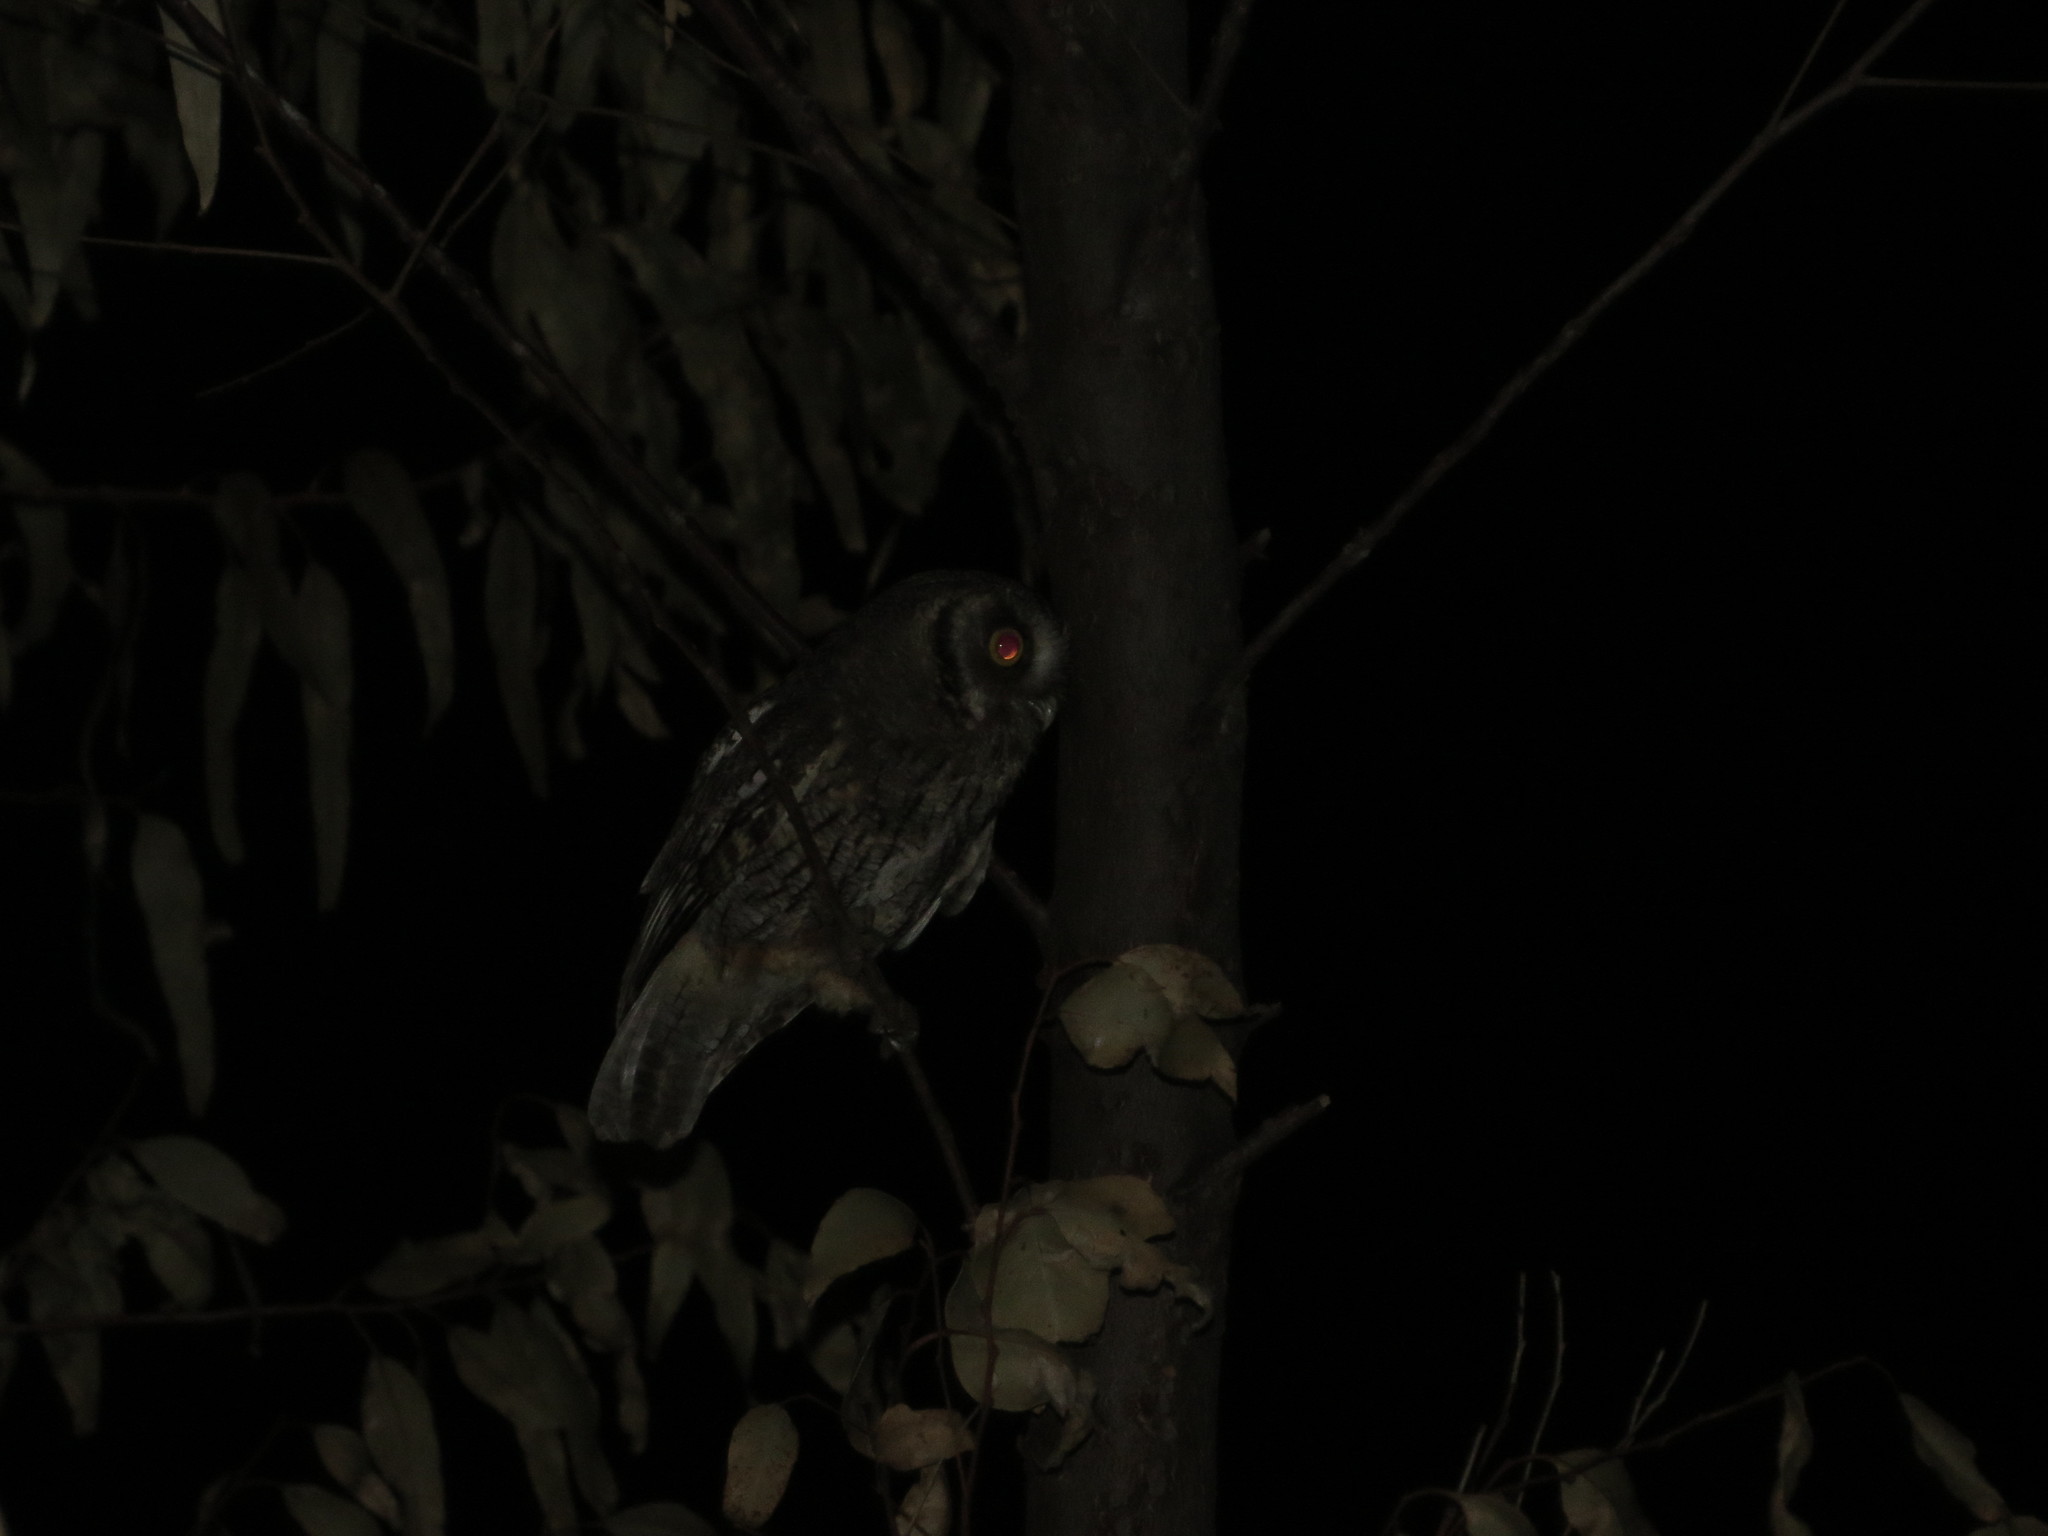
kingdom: Animalia
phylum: Chordata
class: Aves
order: Strigiformes
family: Strigidae
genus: Megascops
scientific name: Megascops choliba
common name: Tropical screech-owl
